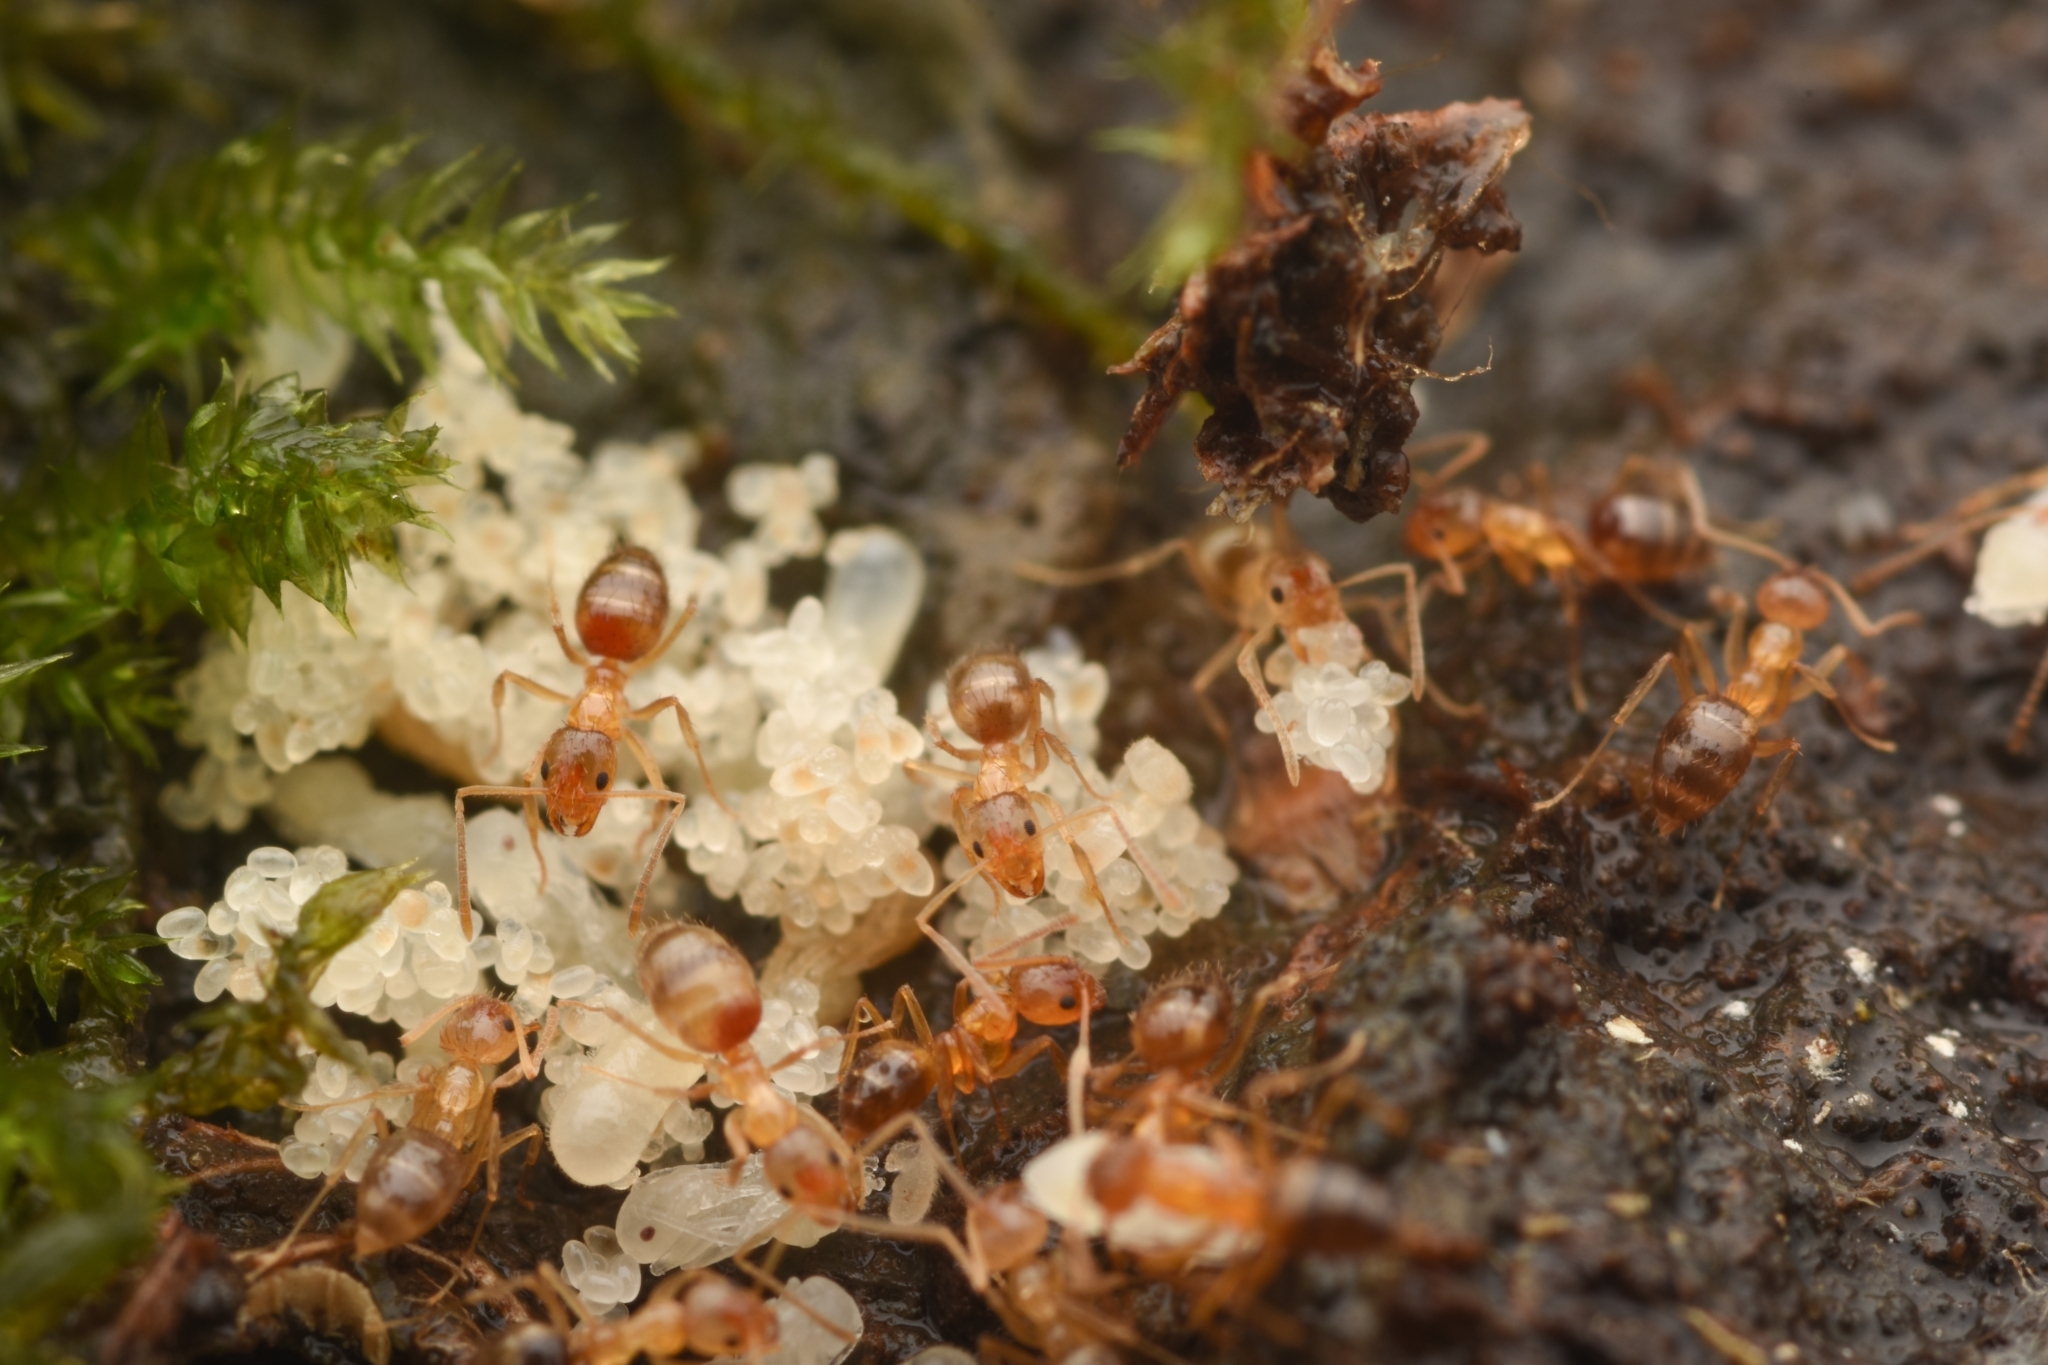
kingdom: Animalia
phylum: Arthropoda
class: Insecta
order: Hymenoptera
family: Formicidae
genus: Paratrechina
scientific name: Paratrechina flavipes
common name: Eastern asian formicine ant
